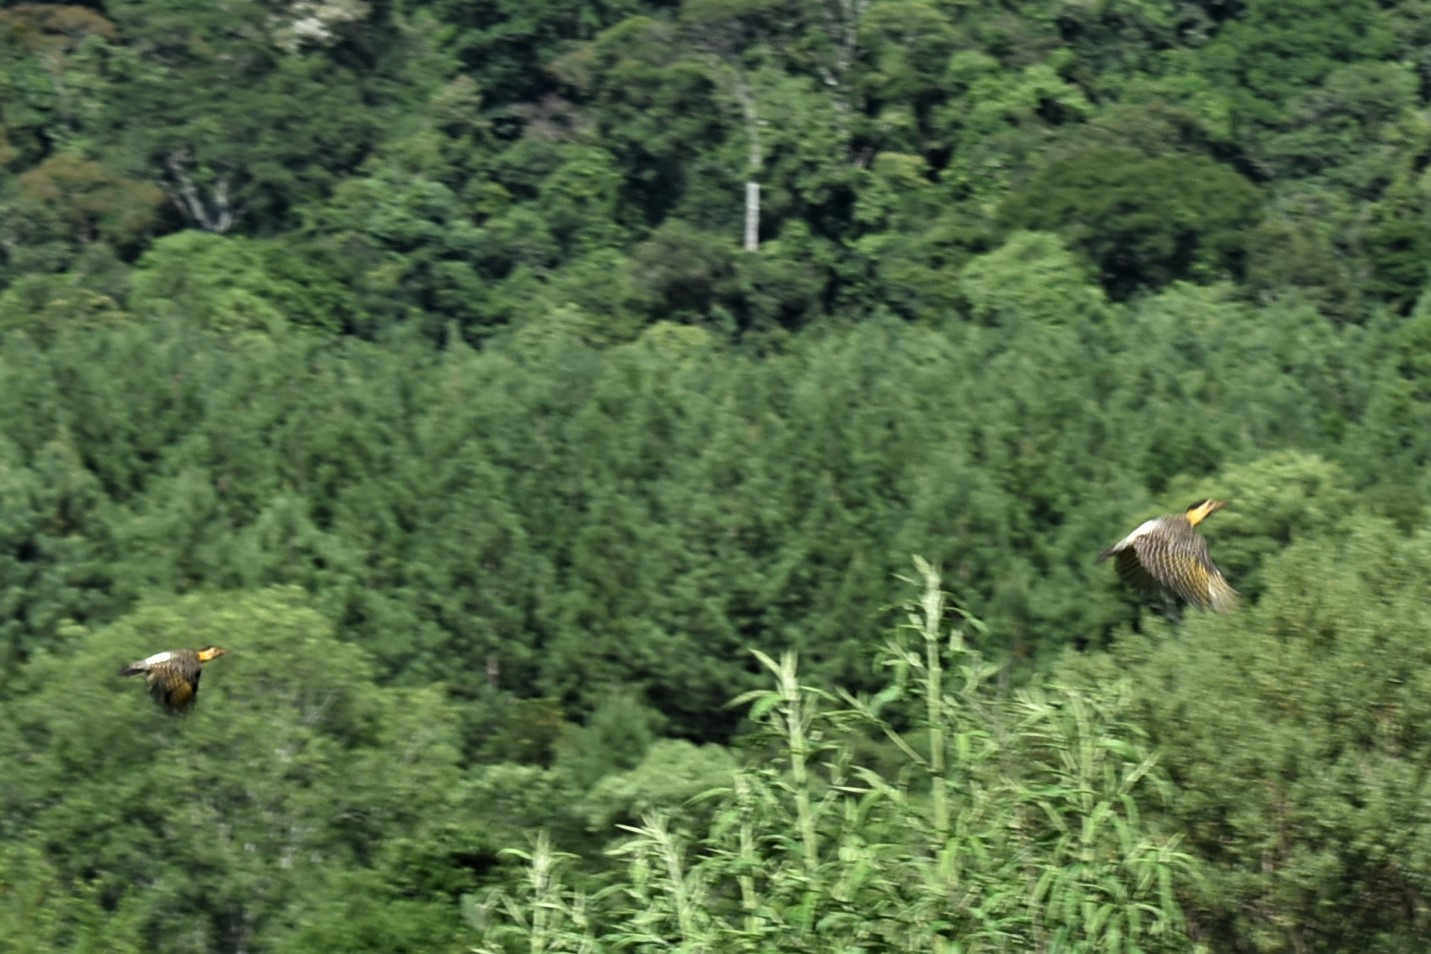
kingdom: Animalia
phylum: Chordata
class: Aves
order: Piciformes
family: Picidae
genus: Colaptes
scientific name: Colaptes campestris
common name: Campo flicker
